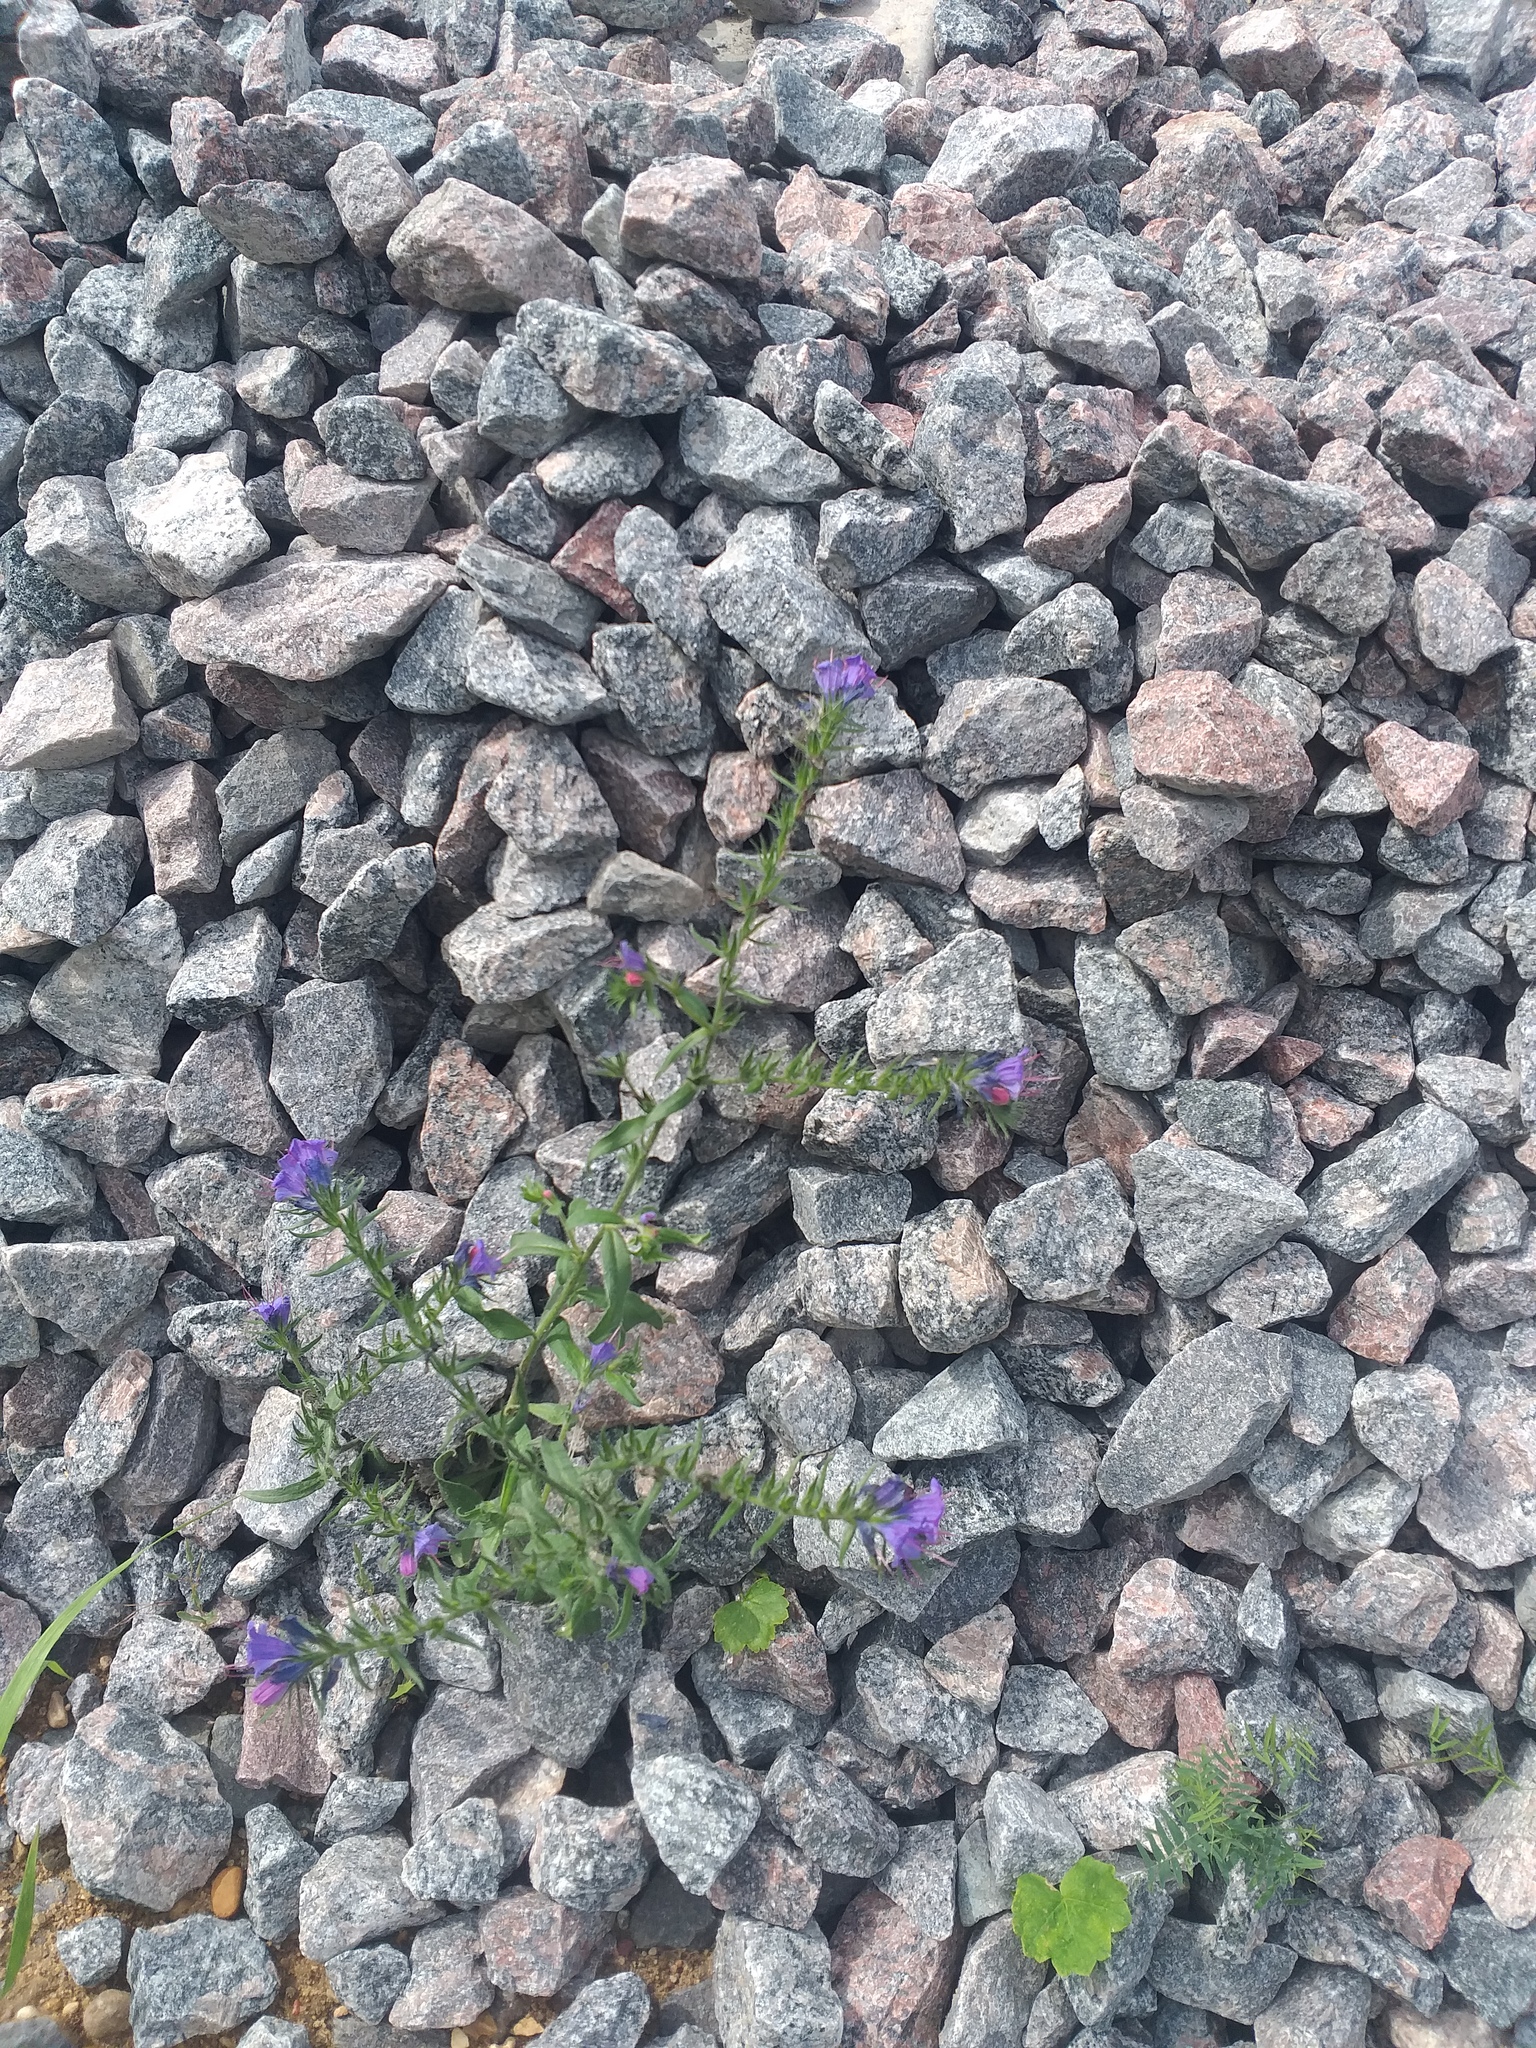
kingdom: Plantae
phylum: Tracheophyta
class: Magnoliopsida
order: Boraginales
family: Boraginaceae
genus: Echium
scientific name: Echium vulgare
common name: Common viper's bugloss
